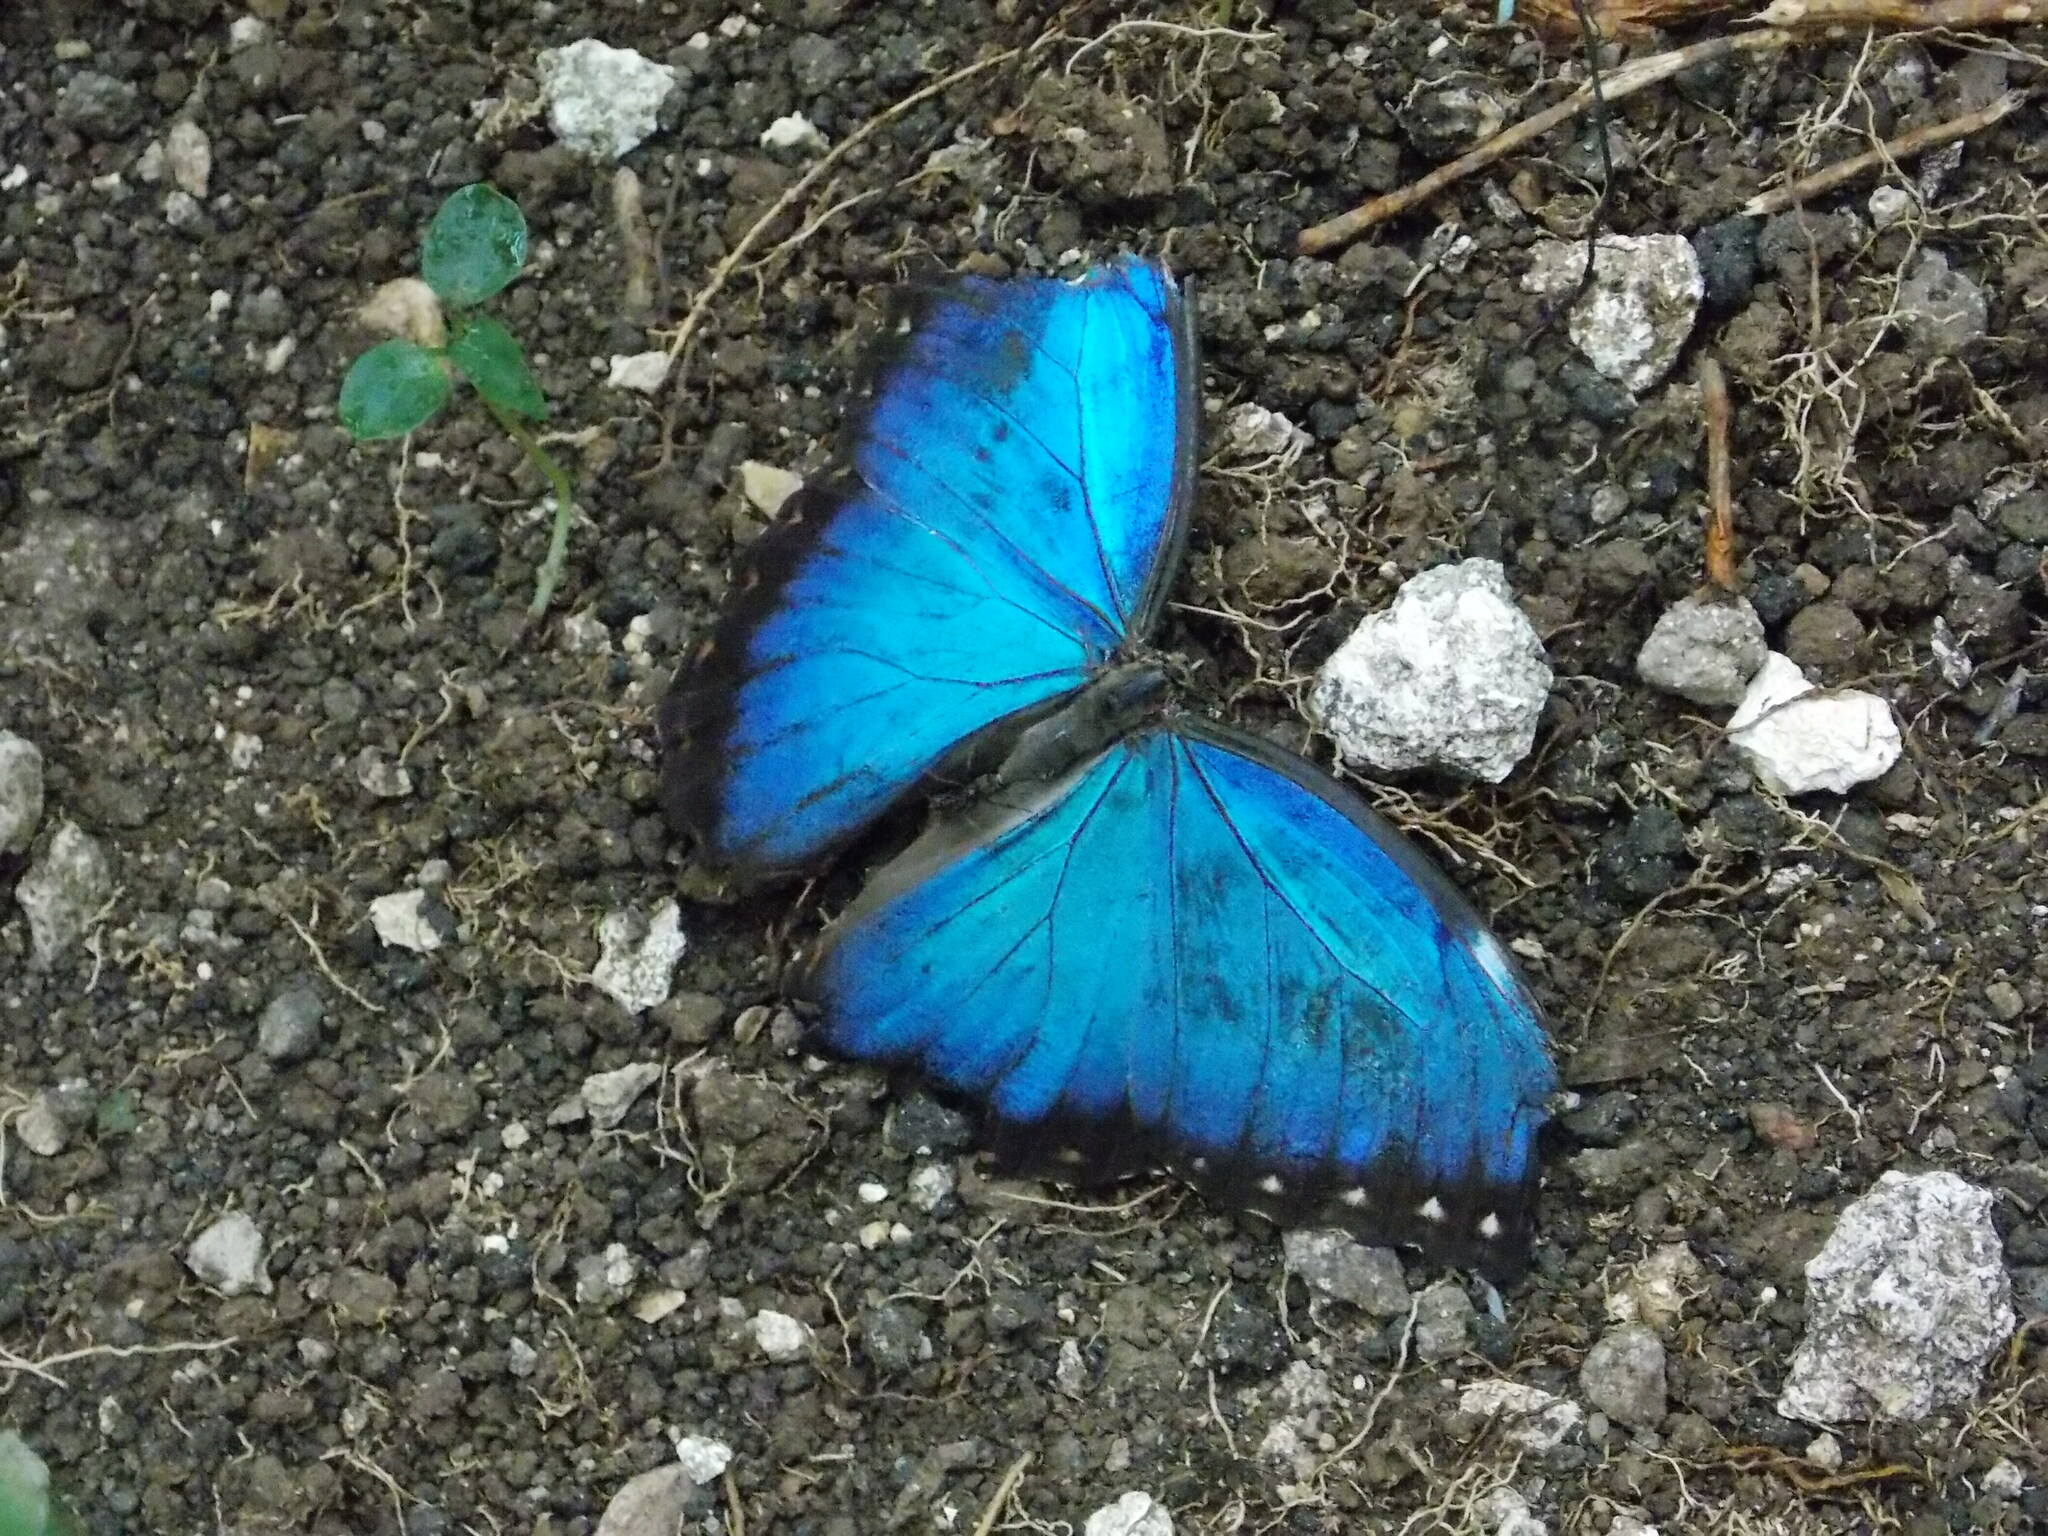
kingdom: Animalia
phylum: Arthropoda
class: Insecta
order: Lepidoptera
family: Nymphalidae
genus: Morpho
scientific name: Morpho helenor
